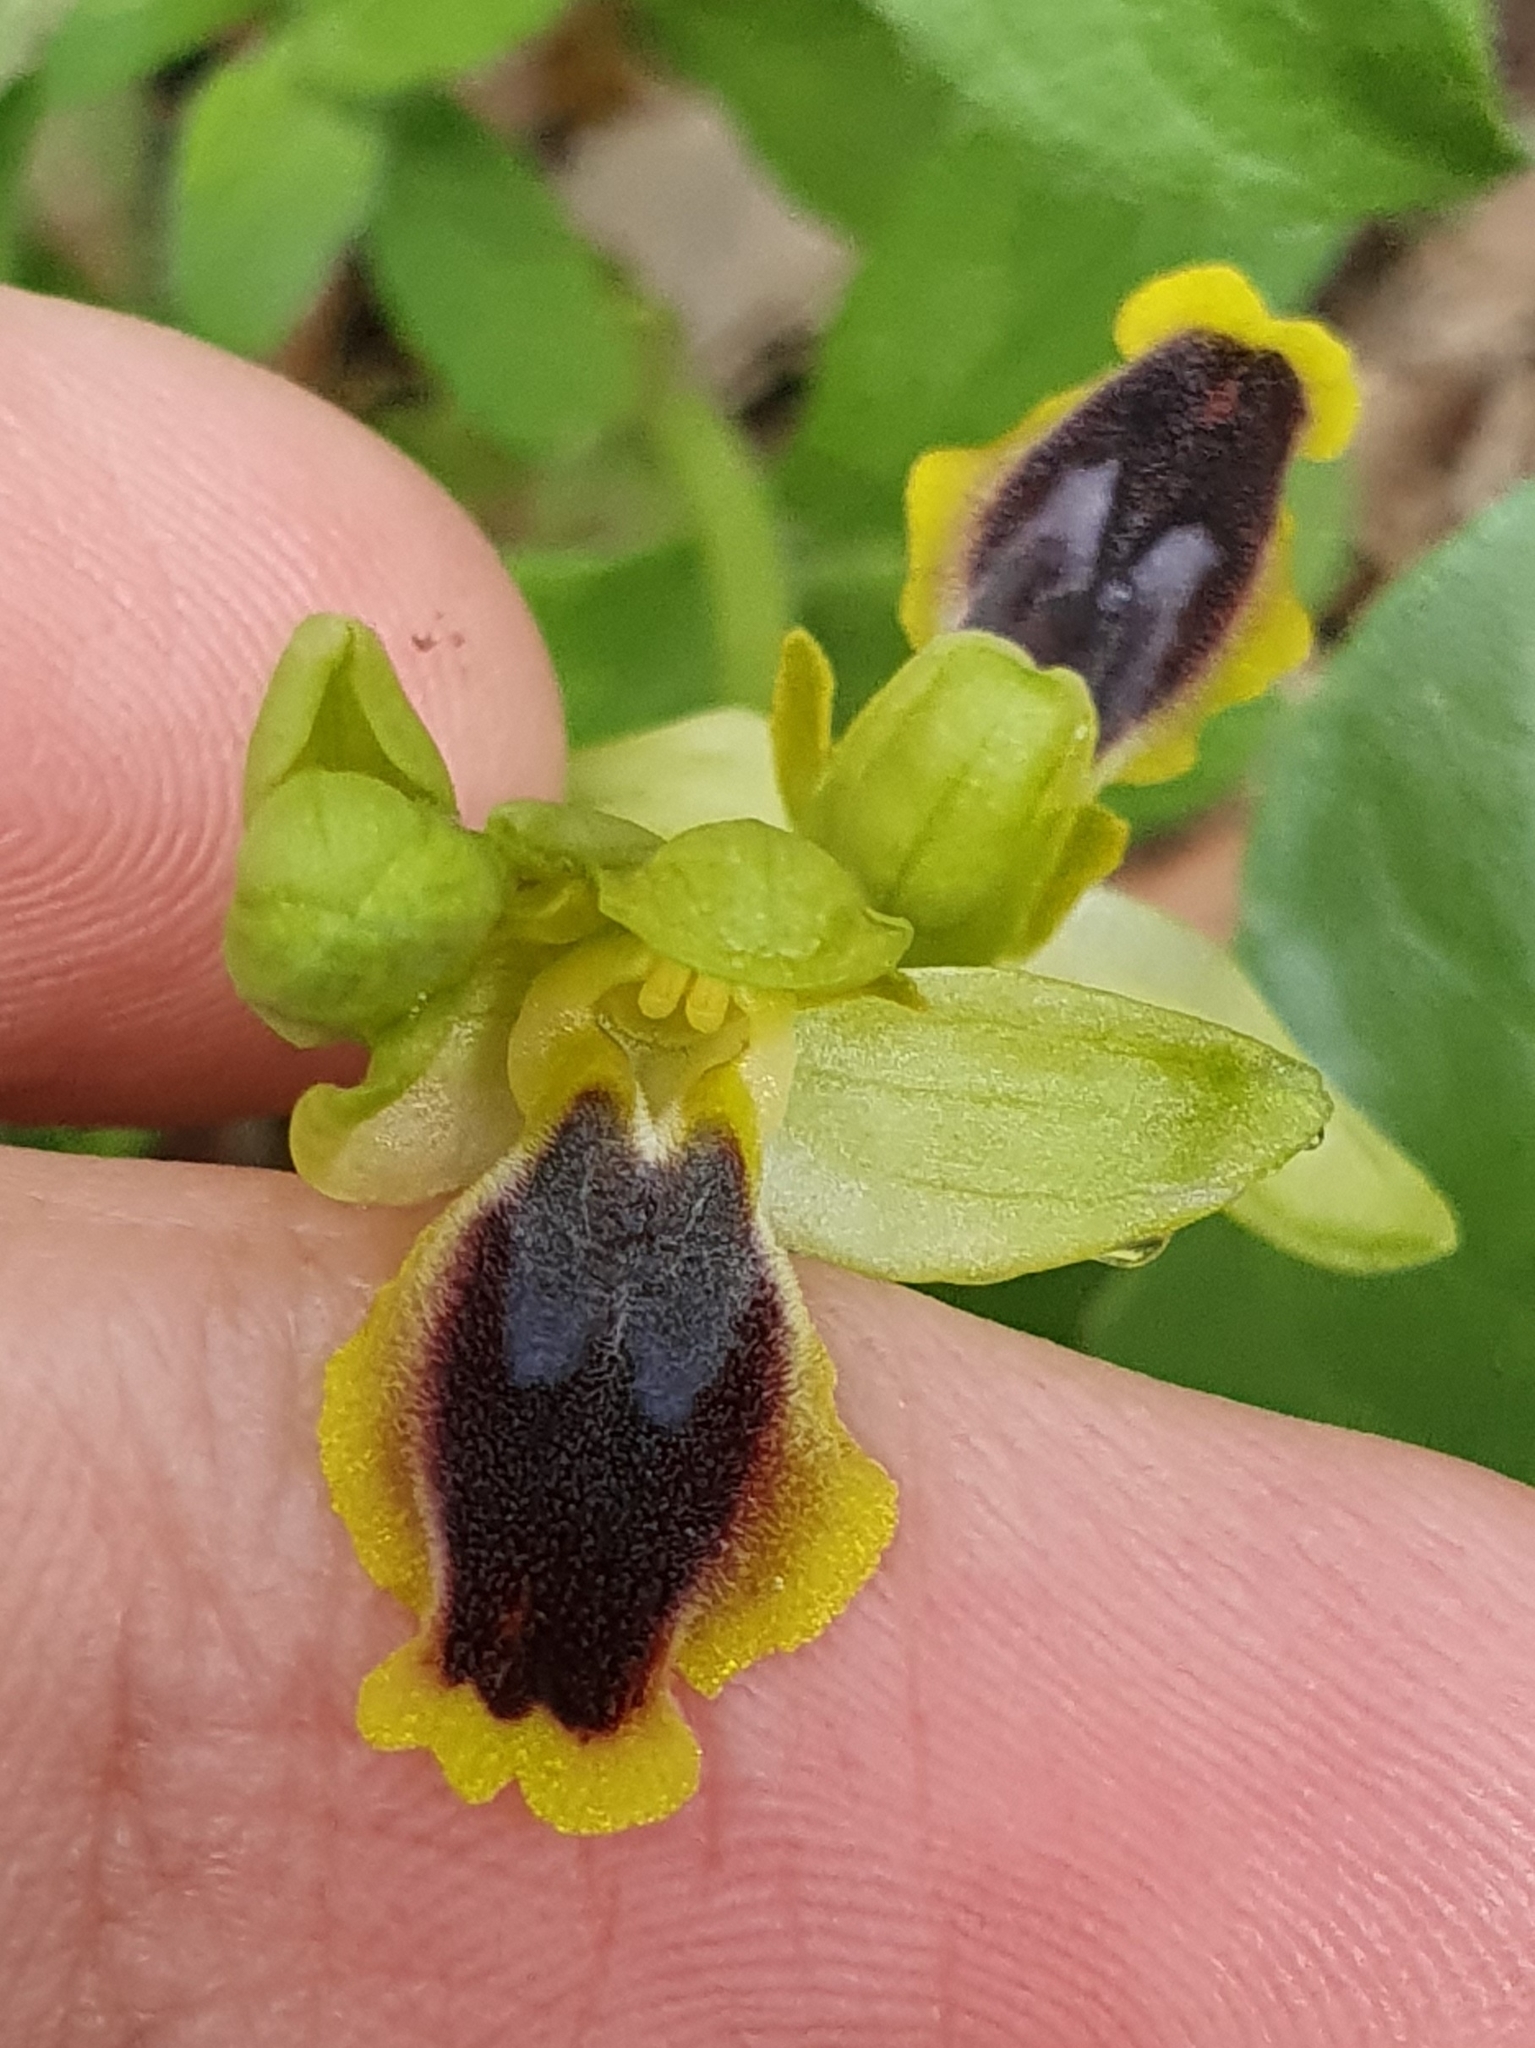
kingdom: Plantae
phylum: Tracheophyta
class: Liliopsida
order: Asparagales
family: Orchidaceae
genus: Ophrys
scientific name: Ophrys battandieri
